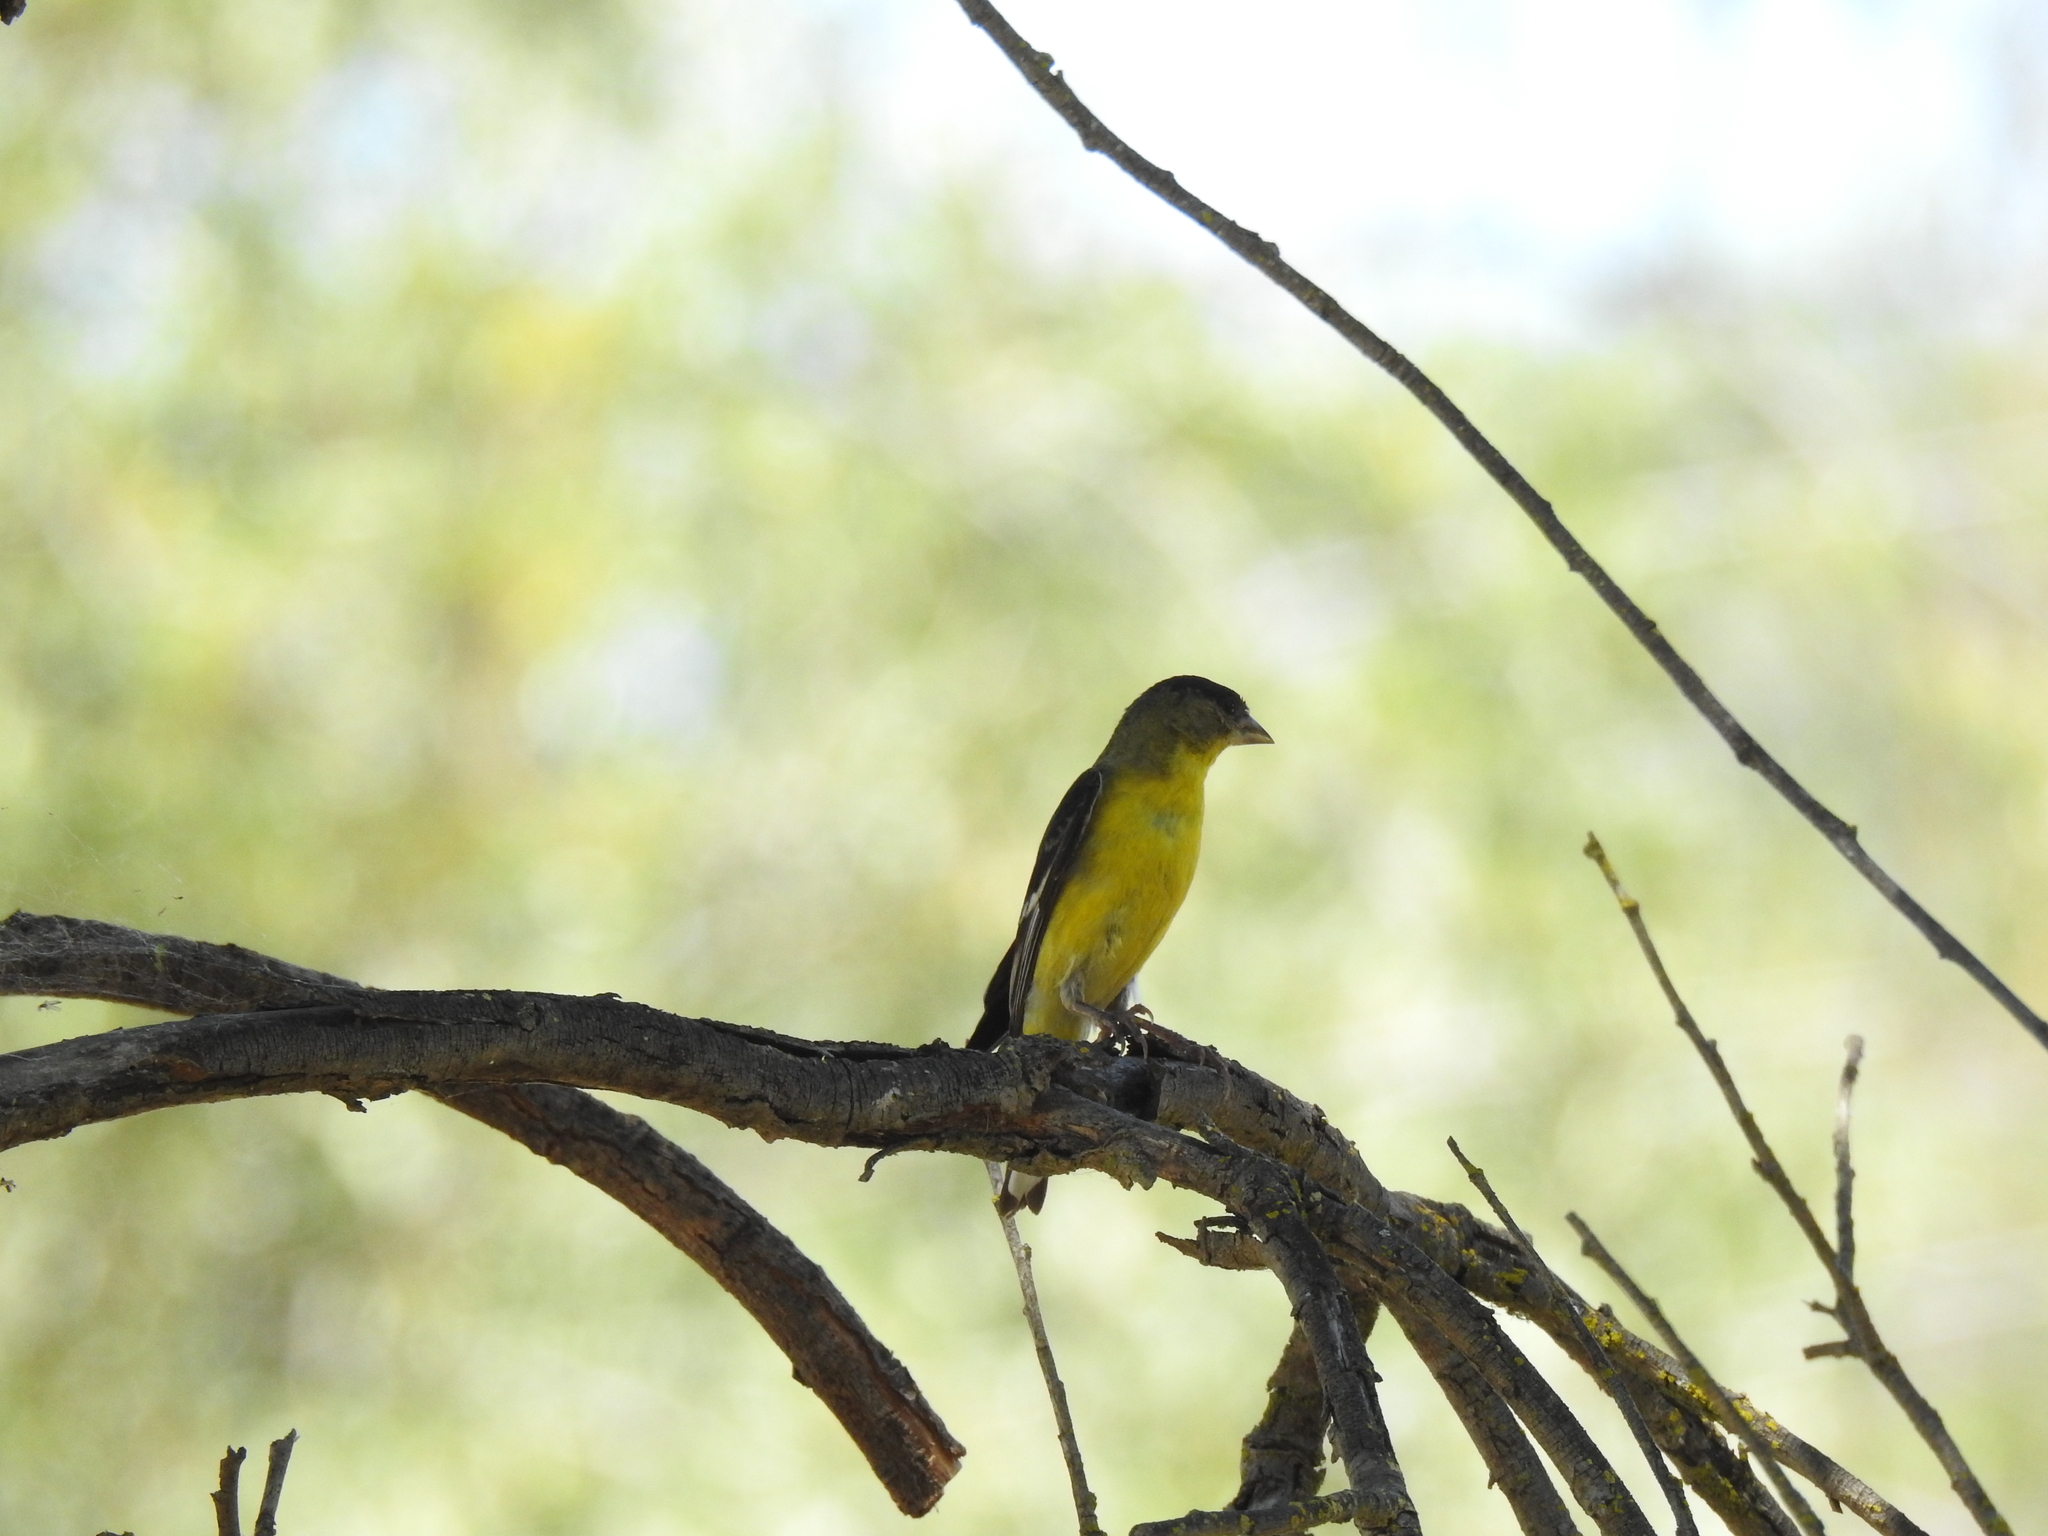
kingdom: Animalia
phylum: Chordata
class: Aves
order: Passeriformes
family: Fringillidae
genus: Spinus
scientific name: Spinus psaltria
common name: Lesser goldfinch
